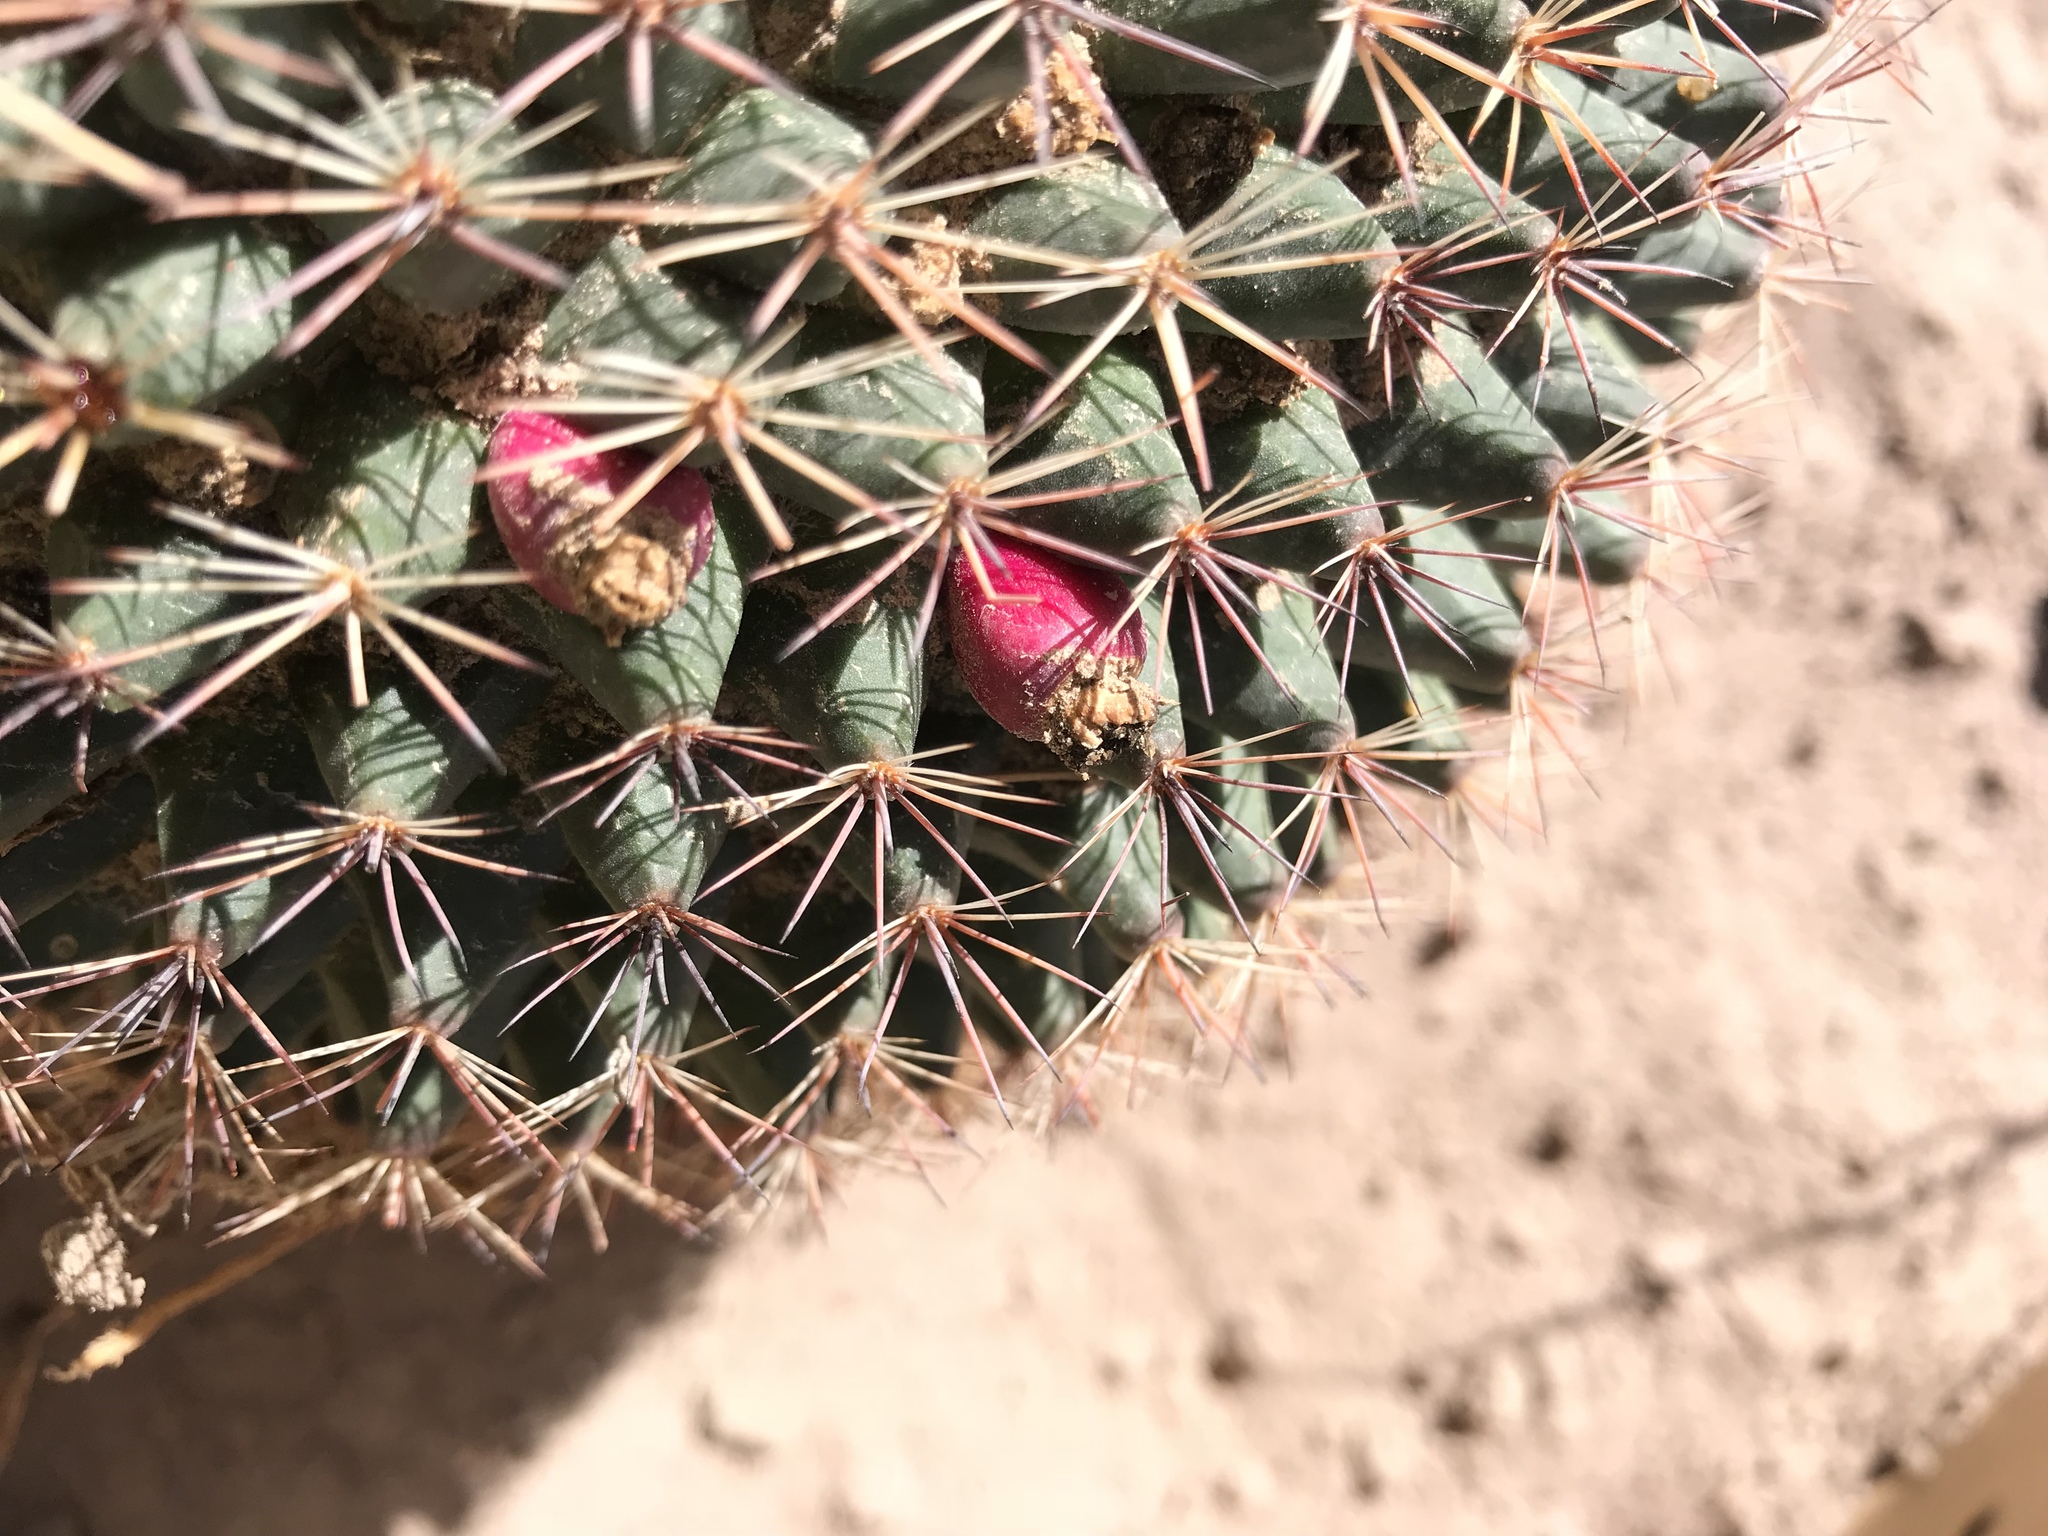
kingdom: Plantae
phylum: Tracheophyta
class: Magnoliopsida
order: Caryophyllales
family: Cactaceae
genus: Mammillaria
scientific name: Mammillaria heyderi
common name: Little nipple cactus
